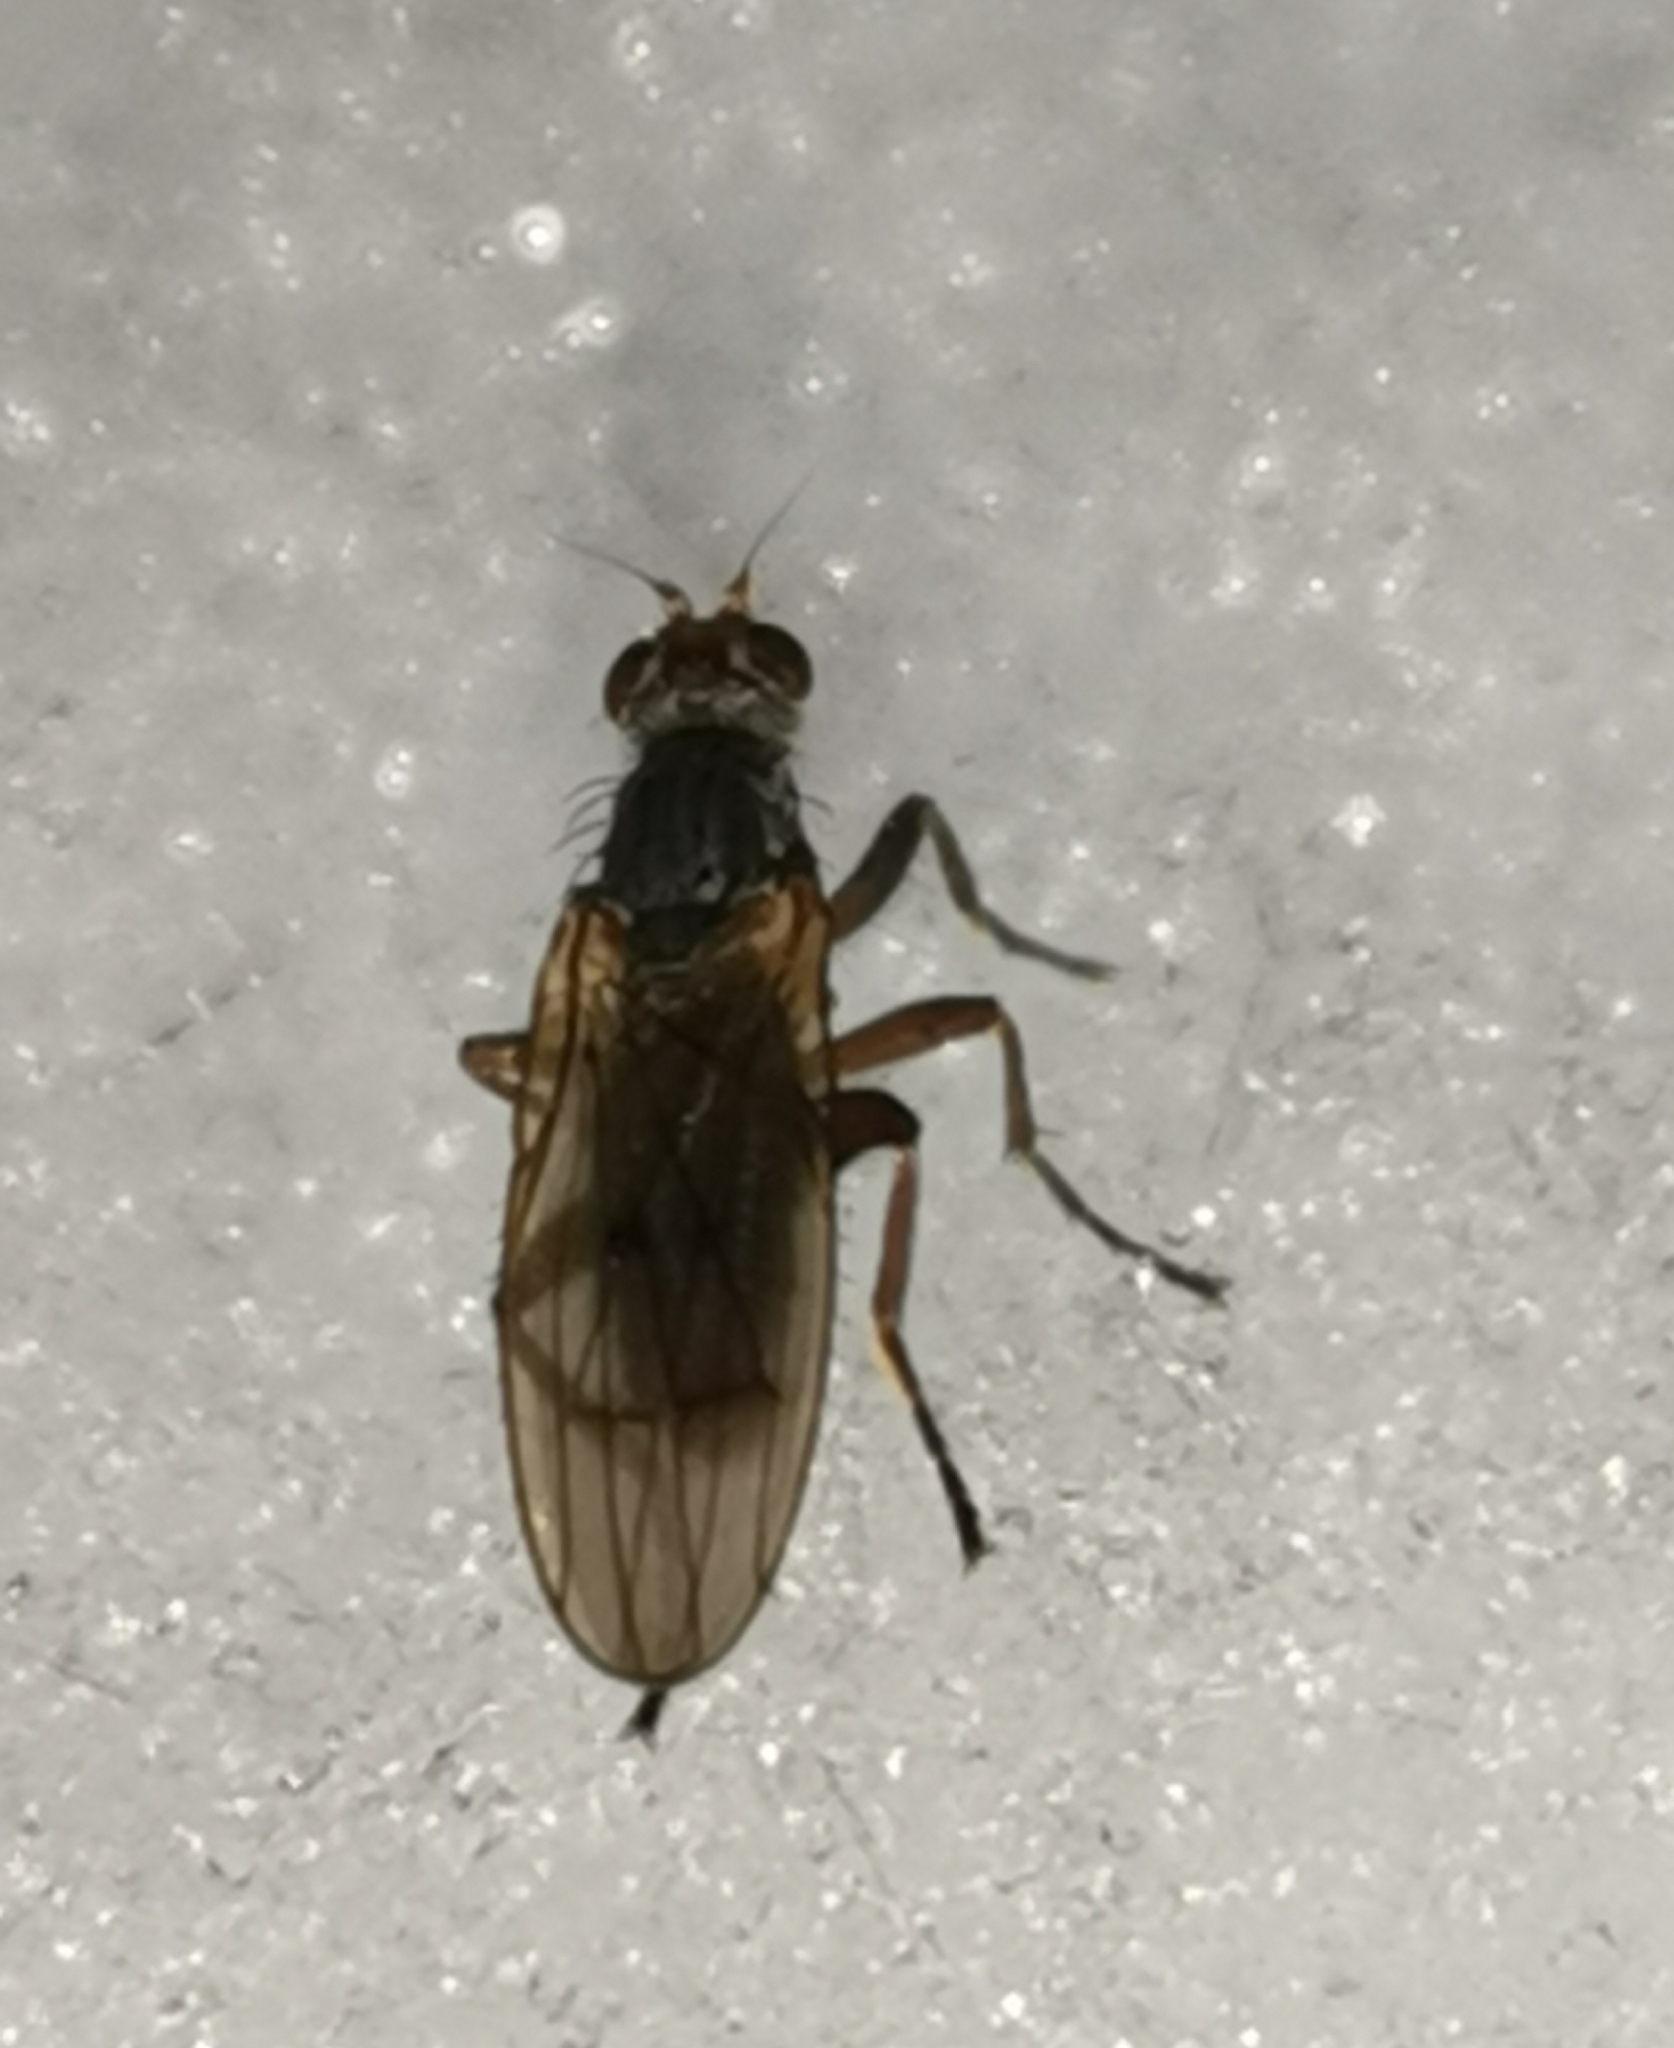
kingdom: Animalia
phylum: Arthropoda
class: Insecta
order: Diptera
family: Heleomyzidae
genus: Scoliocentra
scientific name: Scoliocentra nigrinervis
